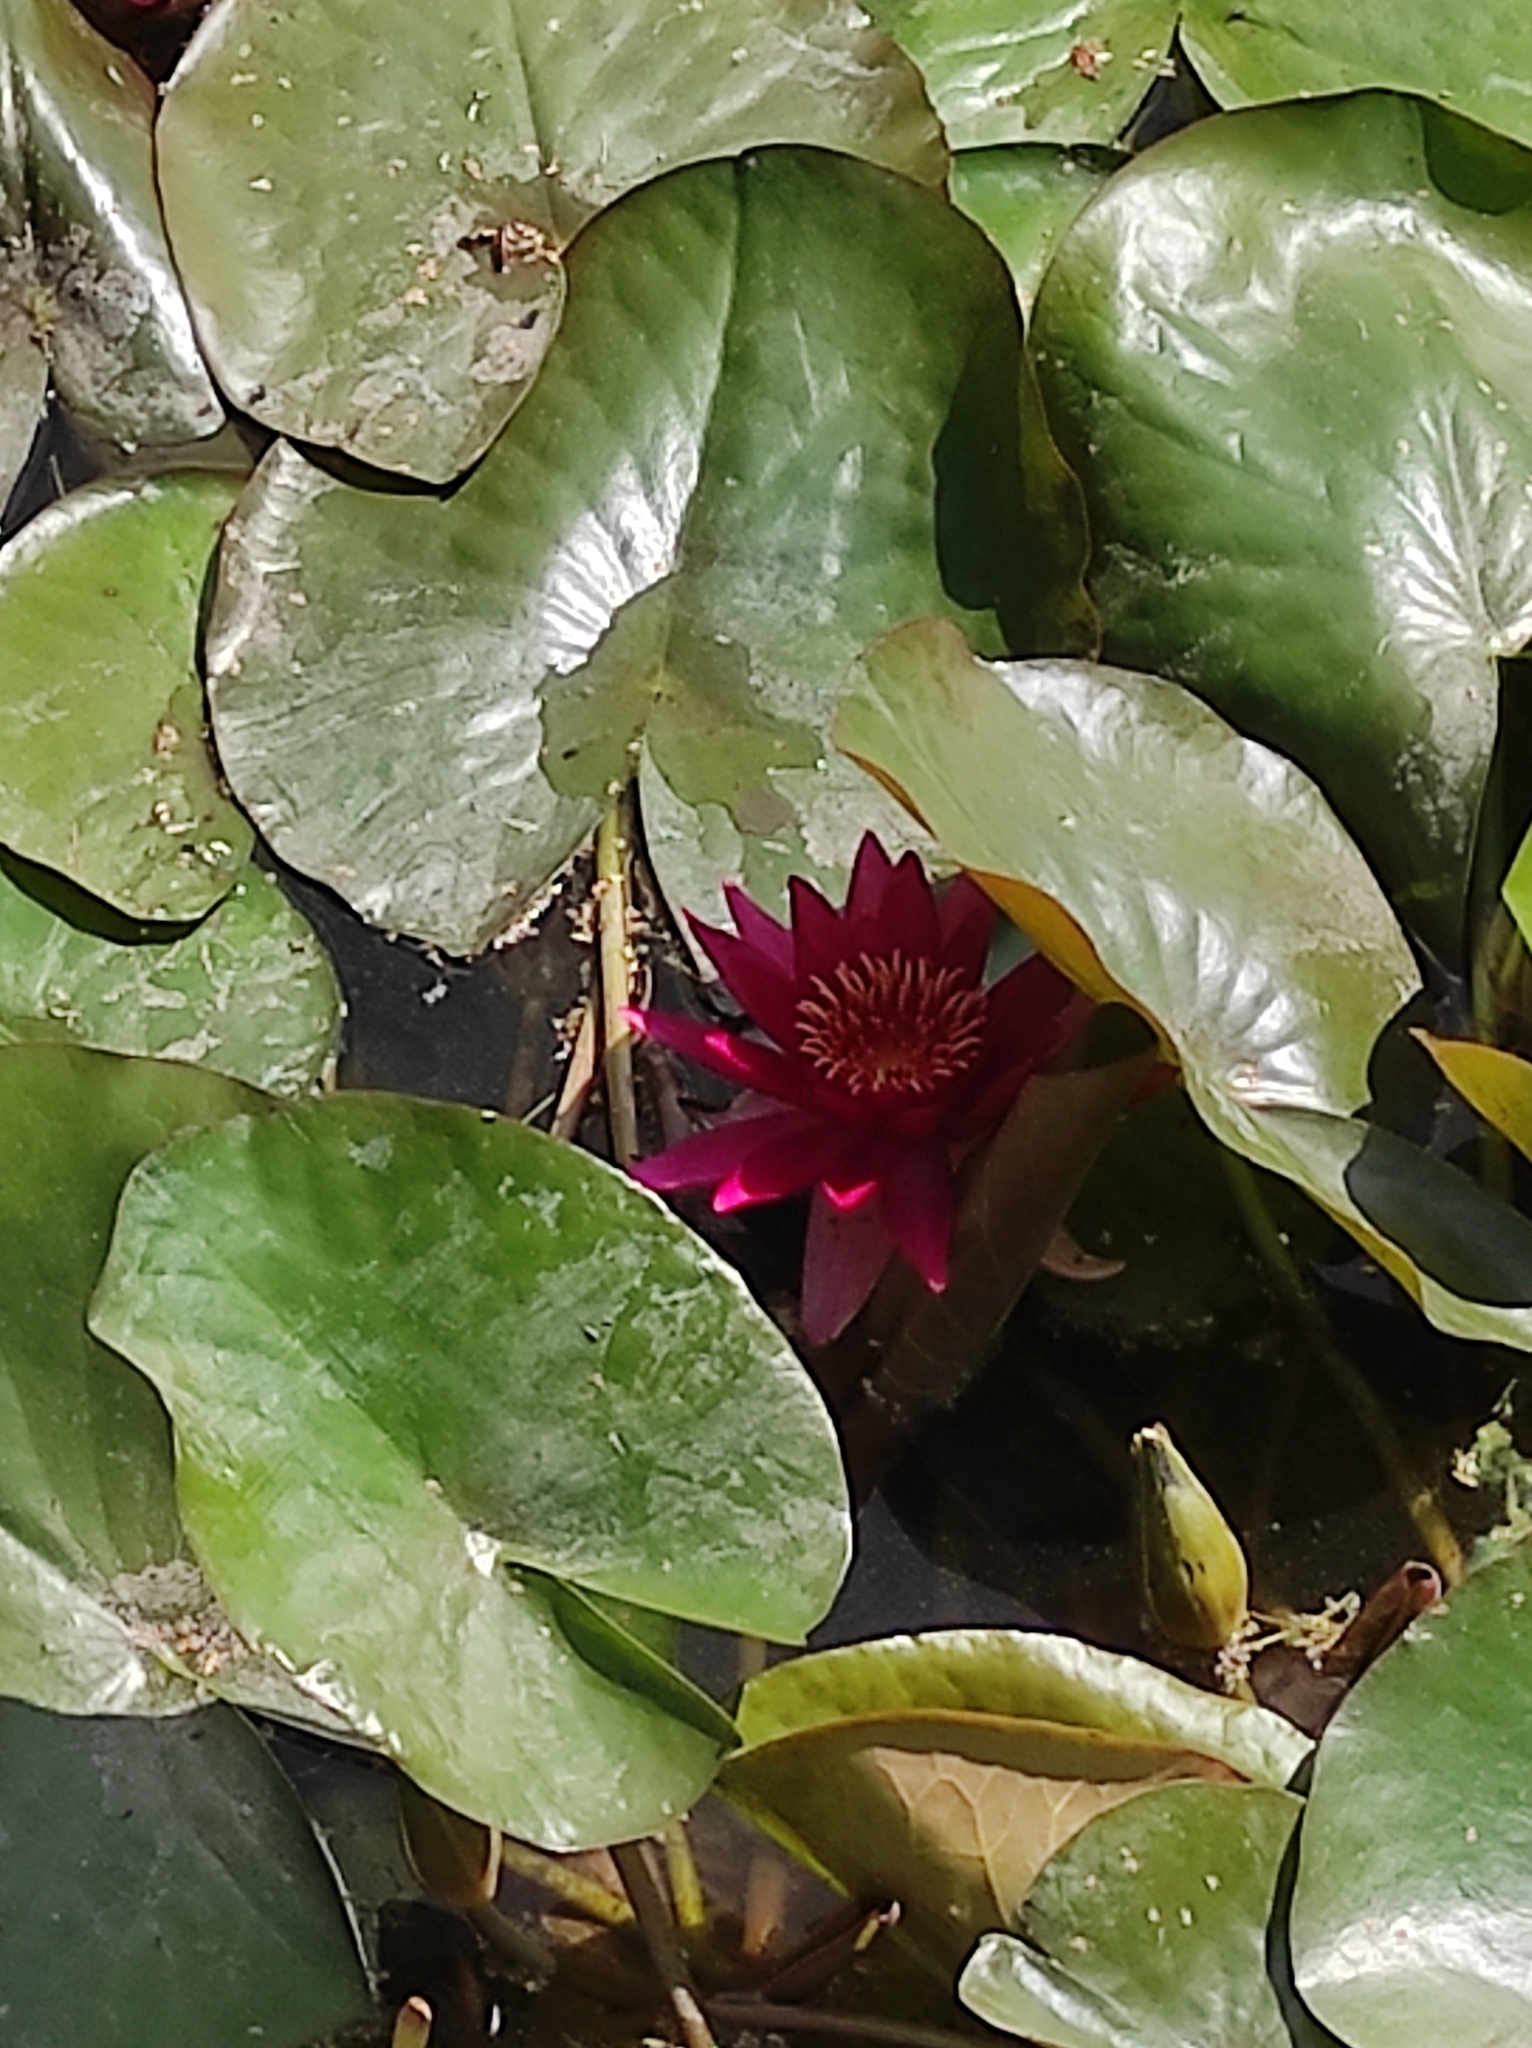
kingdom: Plantae
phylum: Tracheophyta
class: Magnoliopsida
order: Nymphaeales
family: Nymphaeaceae
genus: Nymphaea
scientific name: Nymphaea marliacea
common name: Water-lily
